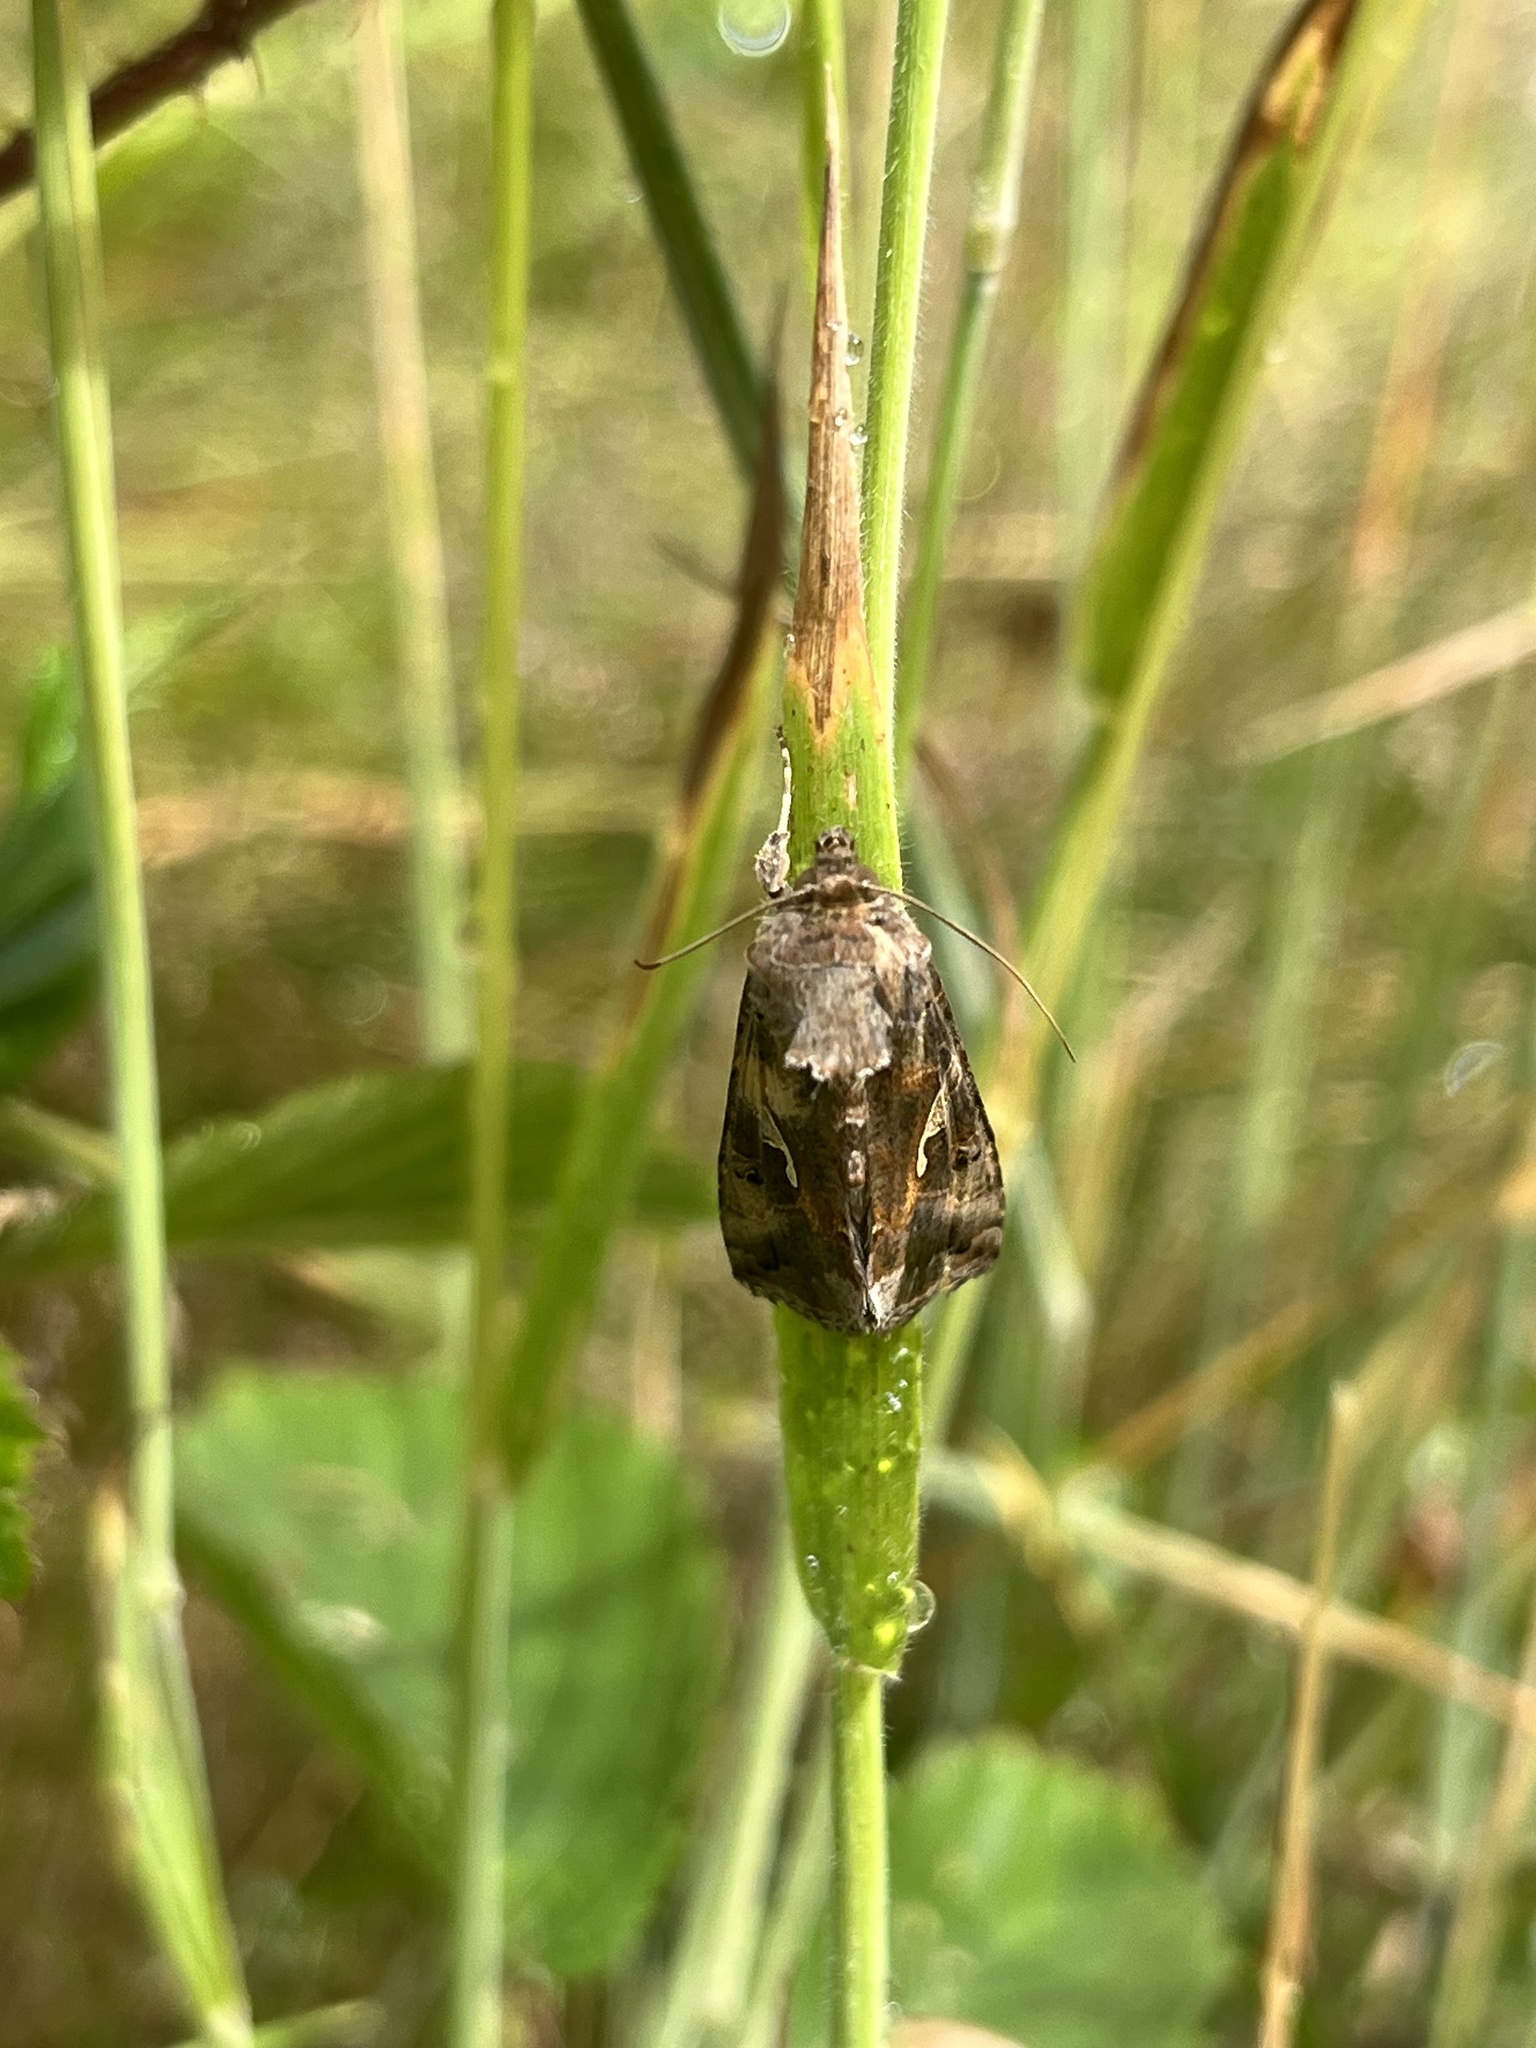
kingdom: Animalia
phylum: Arthropoda
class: Insecta
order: Lepidoptera
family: Noctuidae
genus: Autographa
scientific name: Autographa gamma
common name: Silver y
